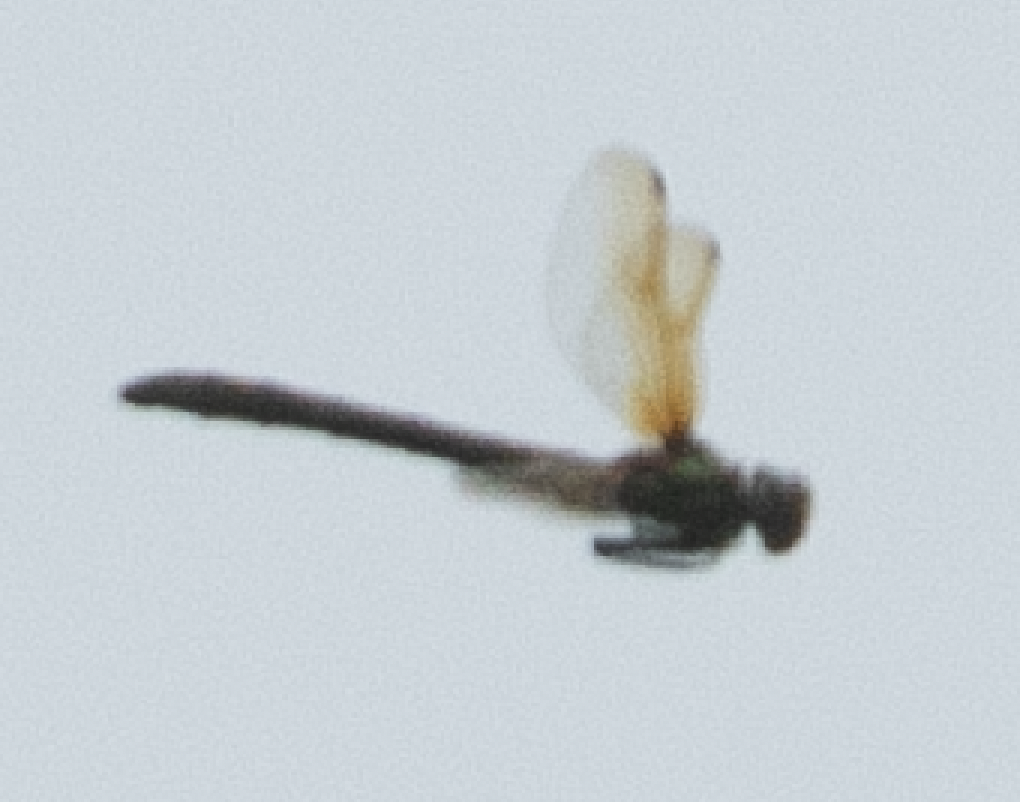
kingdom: Animalia
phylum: Arthropoda
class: Insecta
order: Odonata
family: Corduliidae
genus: Oxygastra
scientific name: Oxygastra curtisii
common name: Orange-spotted emerald
